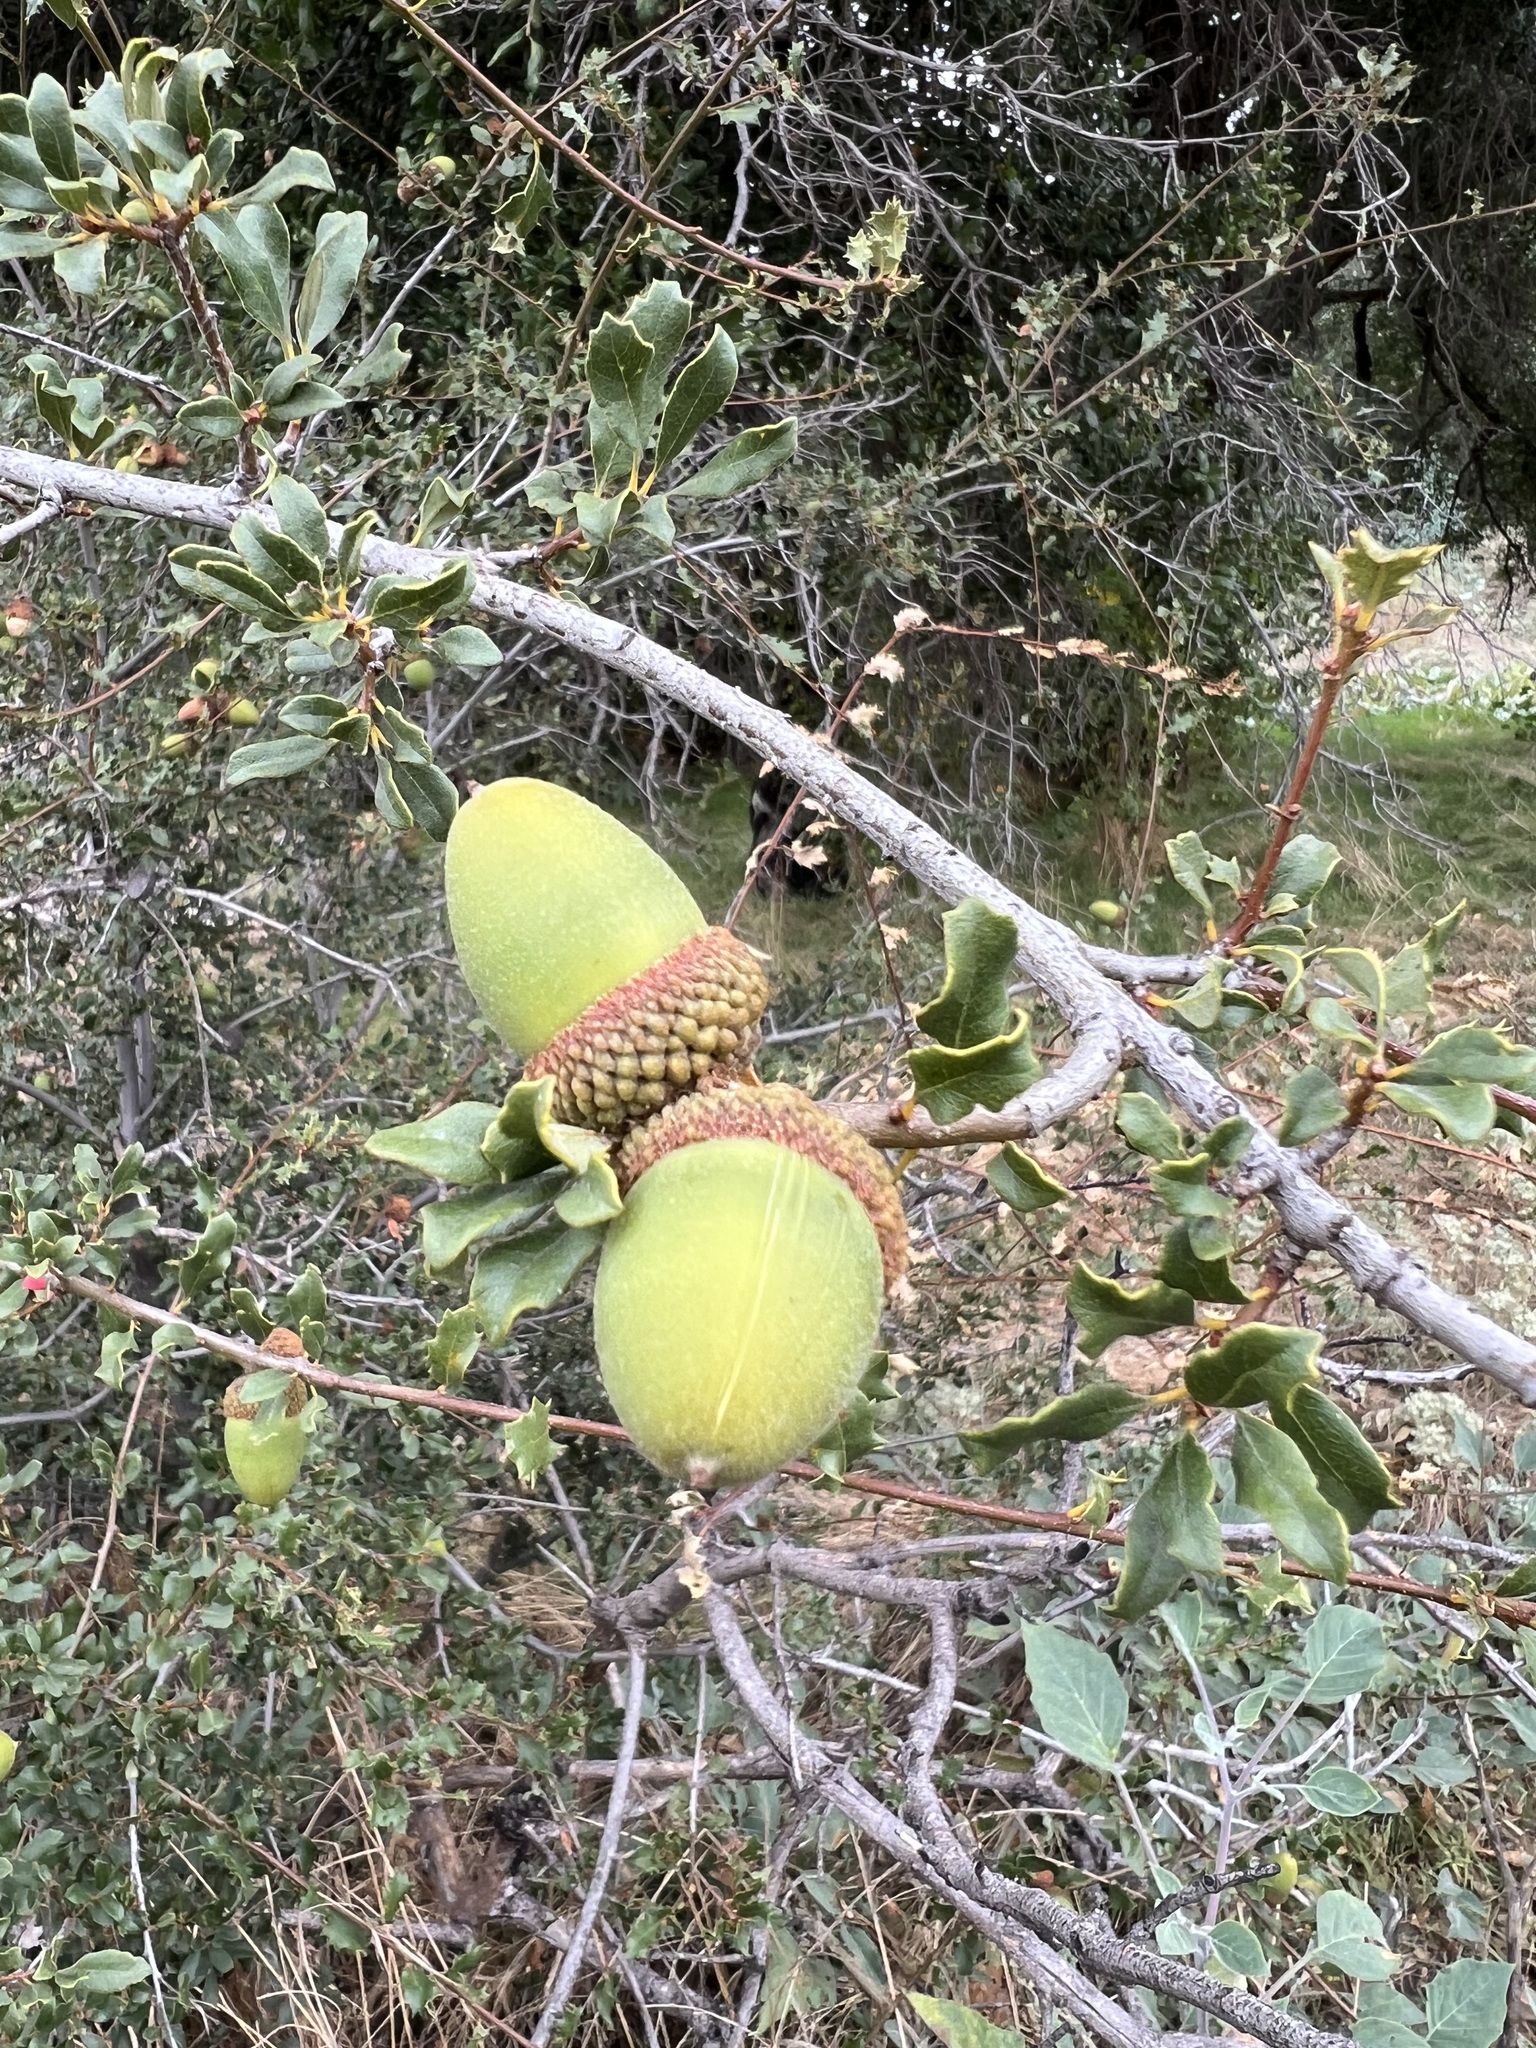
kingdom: Plantae
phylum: Tracheophyta
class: Magnoliopsida
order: Fagales
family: Fagaceae
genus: Quercus
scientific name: Quercus berberidifolia
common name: California scrub oak
